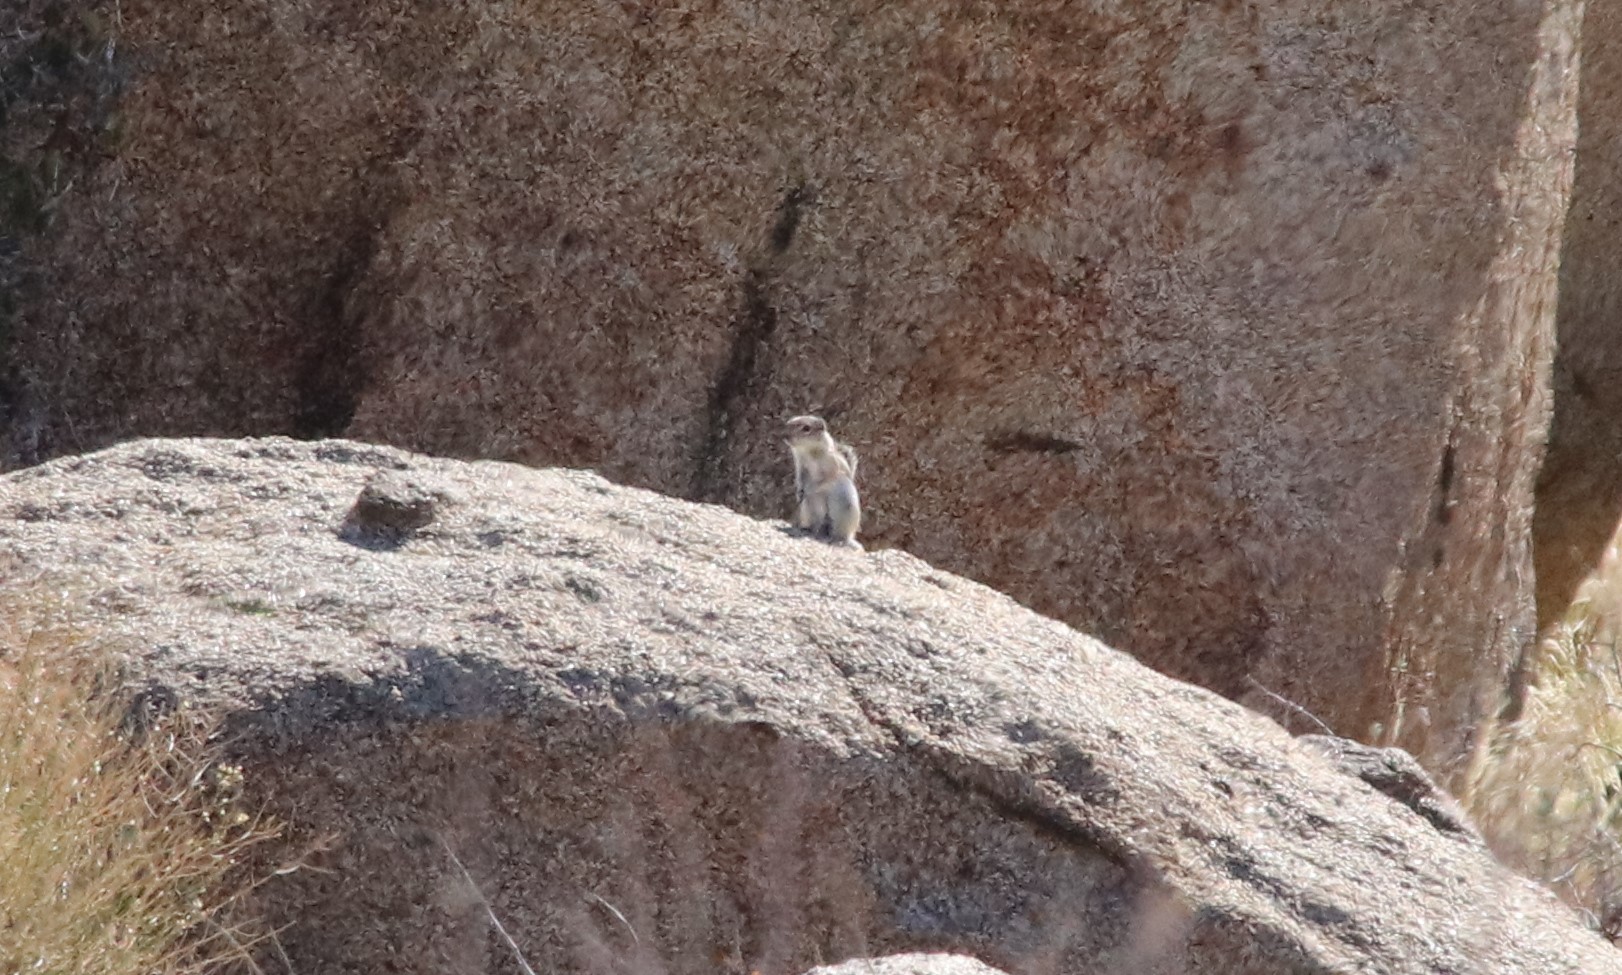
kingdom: Animalia
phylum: Chordata
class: Mammalia
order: Rodentia
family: Sciuridae
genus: Ammospermophilus
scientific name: Ammospermophilus leucurus
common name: White-tailed antelope squirrel
